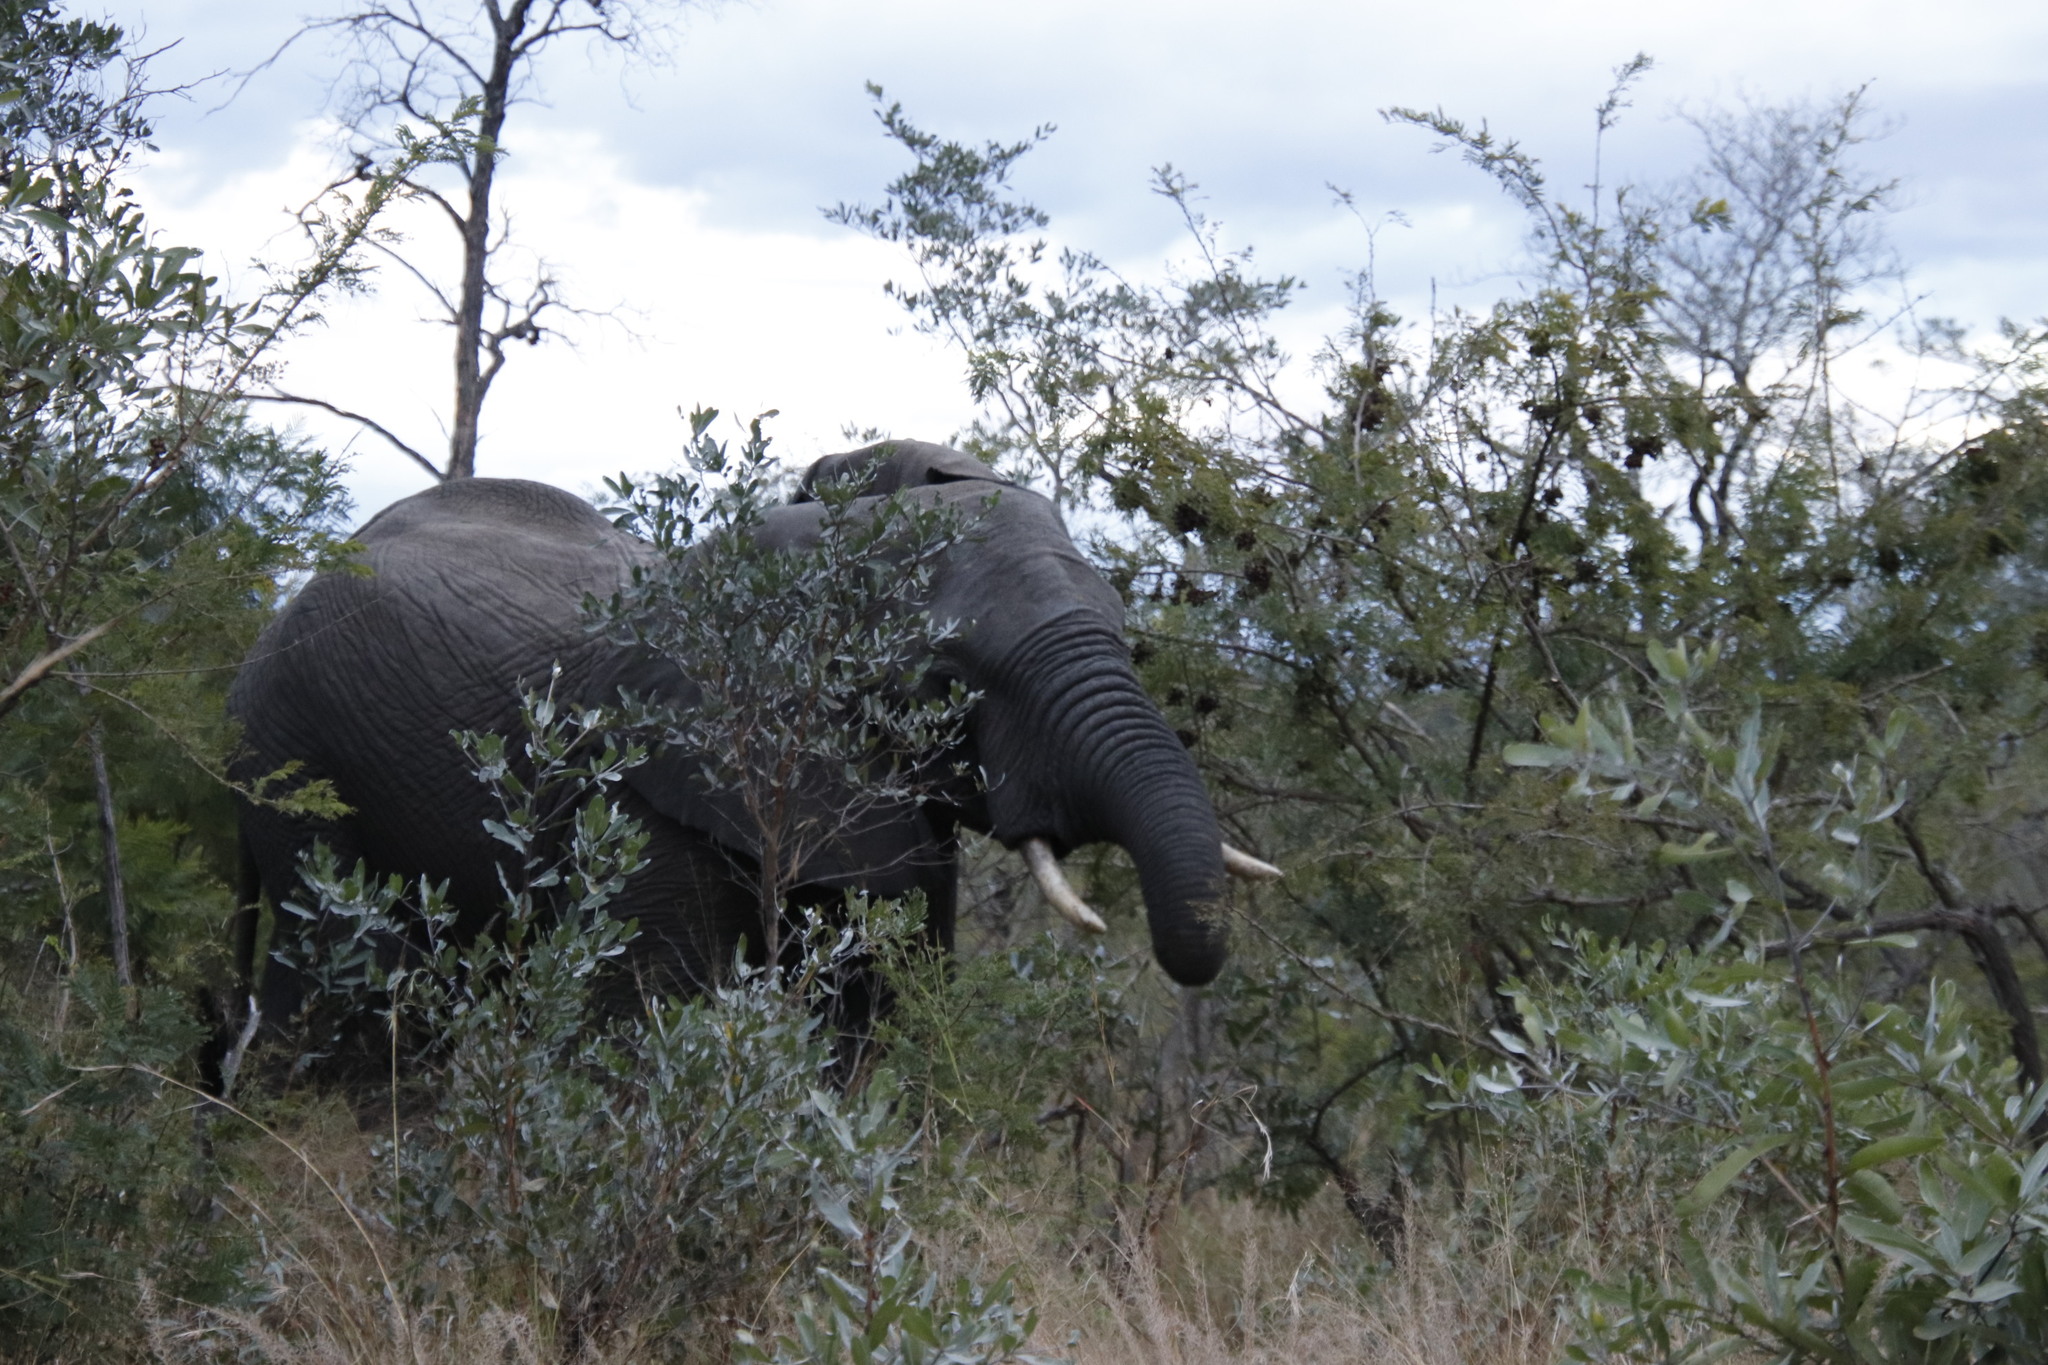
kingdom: Animalia
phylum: Chordata
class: Mammalia
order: Proboscidea
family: Elephantidae
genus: Loxodonta
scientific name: Loxodonta africana
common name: African elephant
